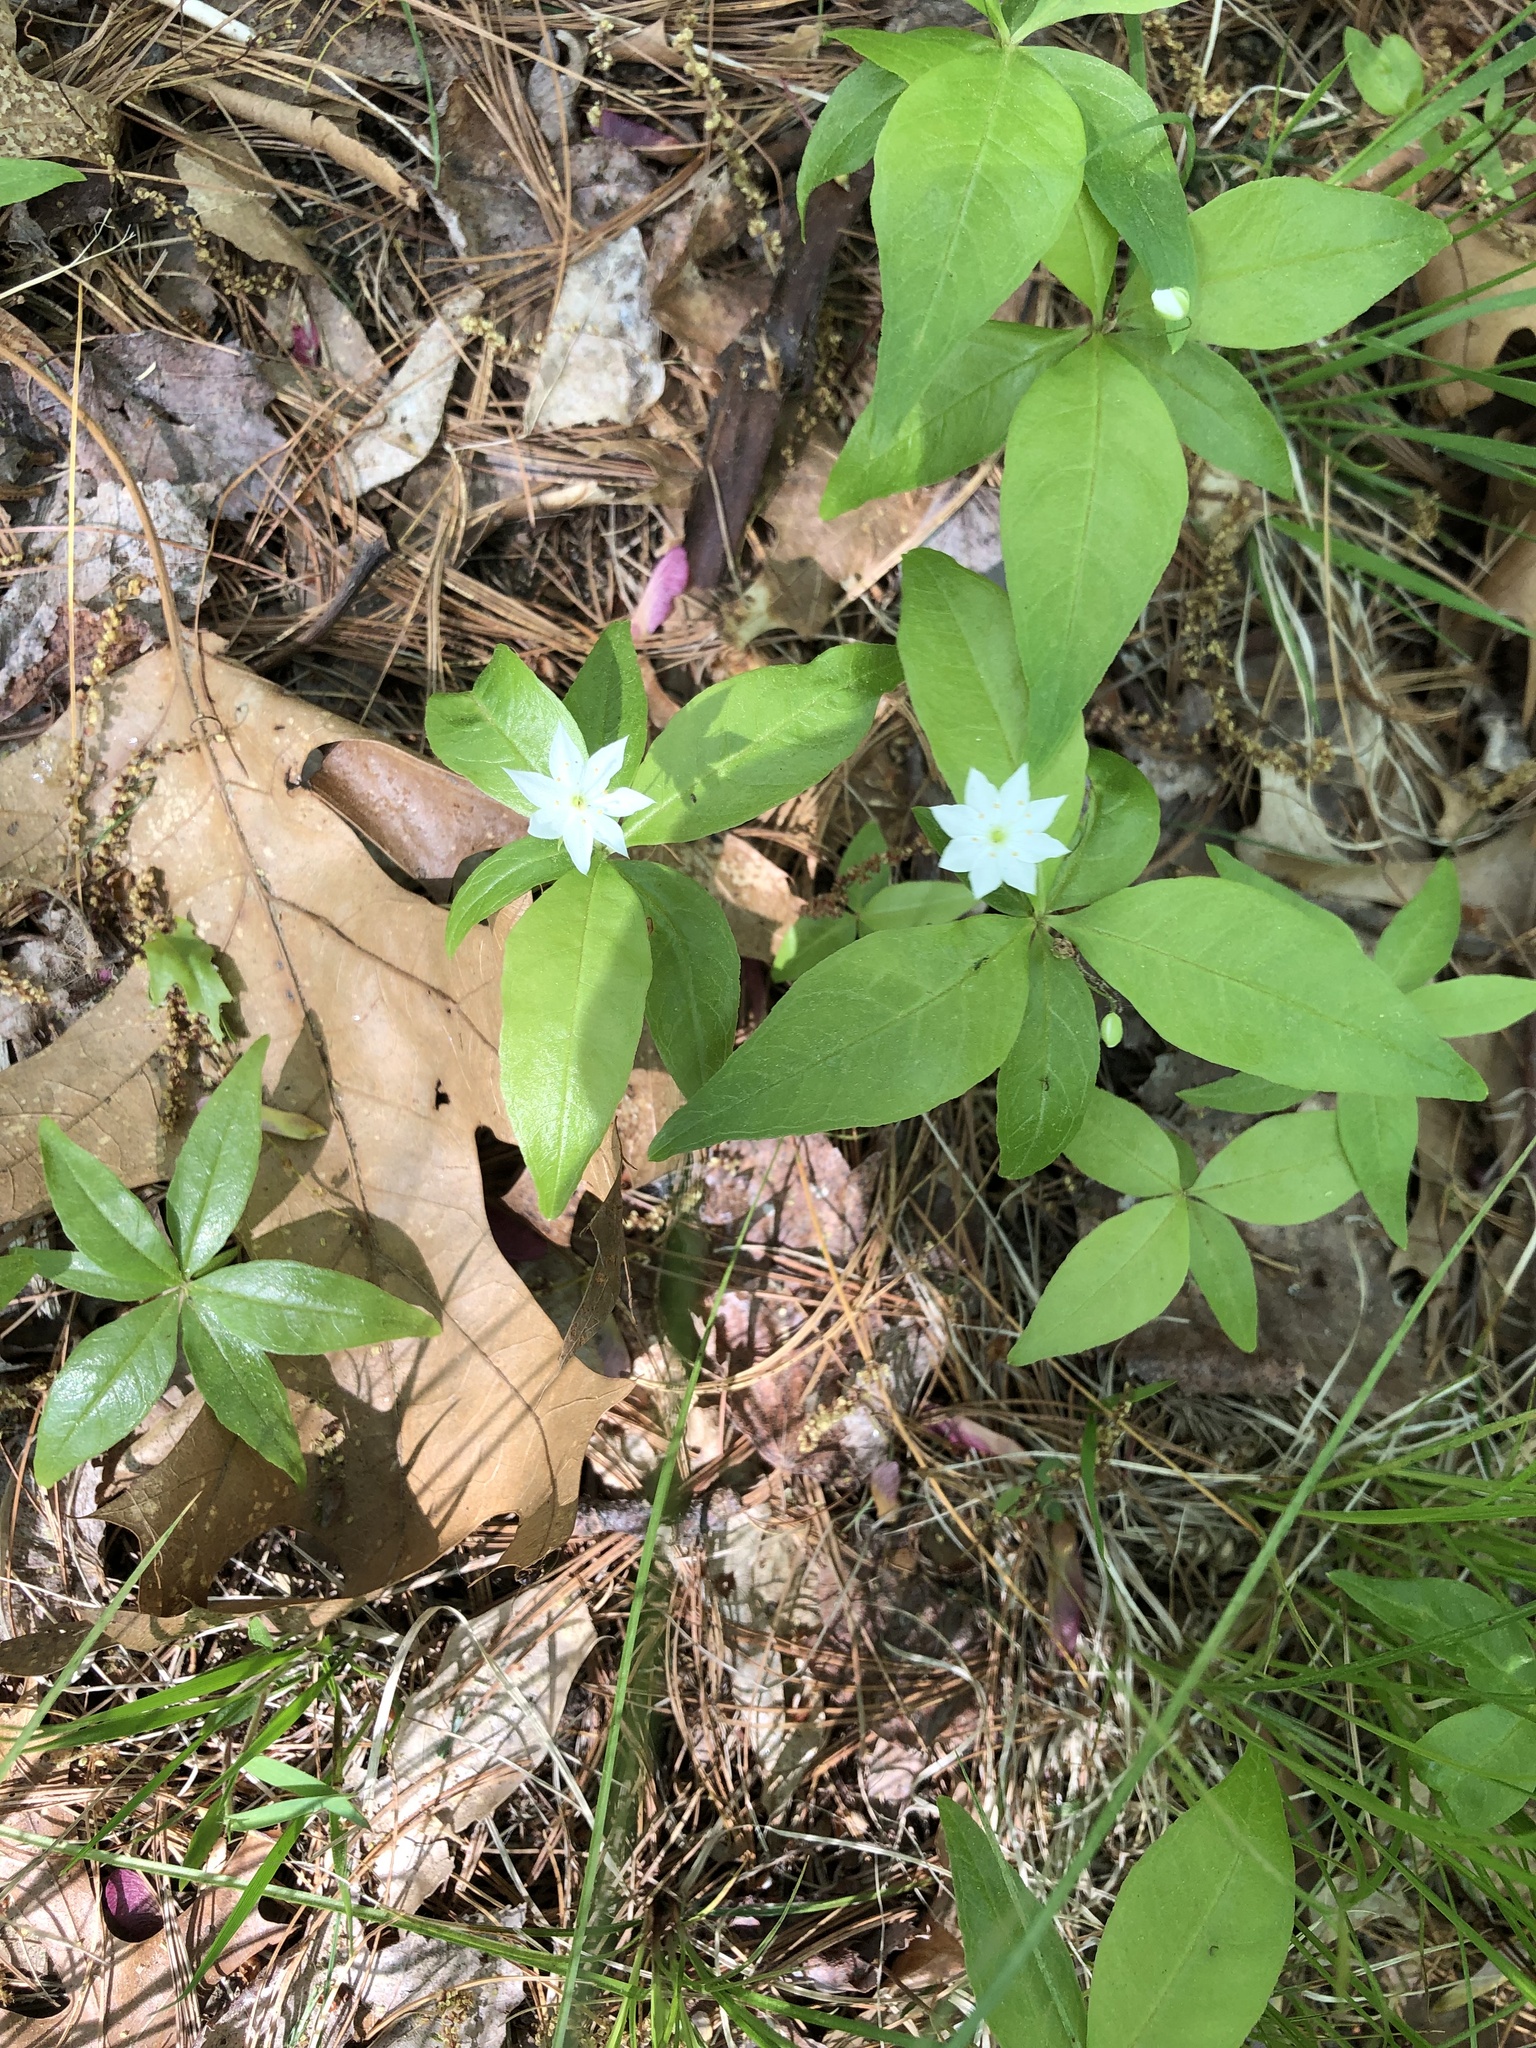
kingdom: Plantae
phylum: Tracheophyta
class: Magnoliopsida
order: Ericales
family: Primulaceae
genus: Lysimachia
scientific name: Lysimachia borealis
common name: American starflower
